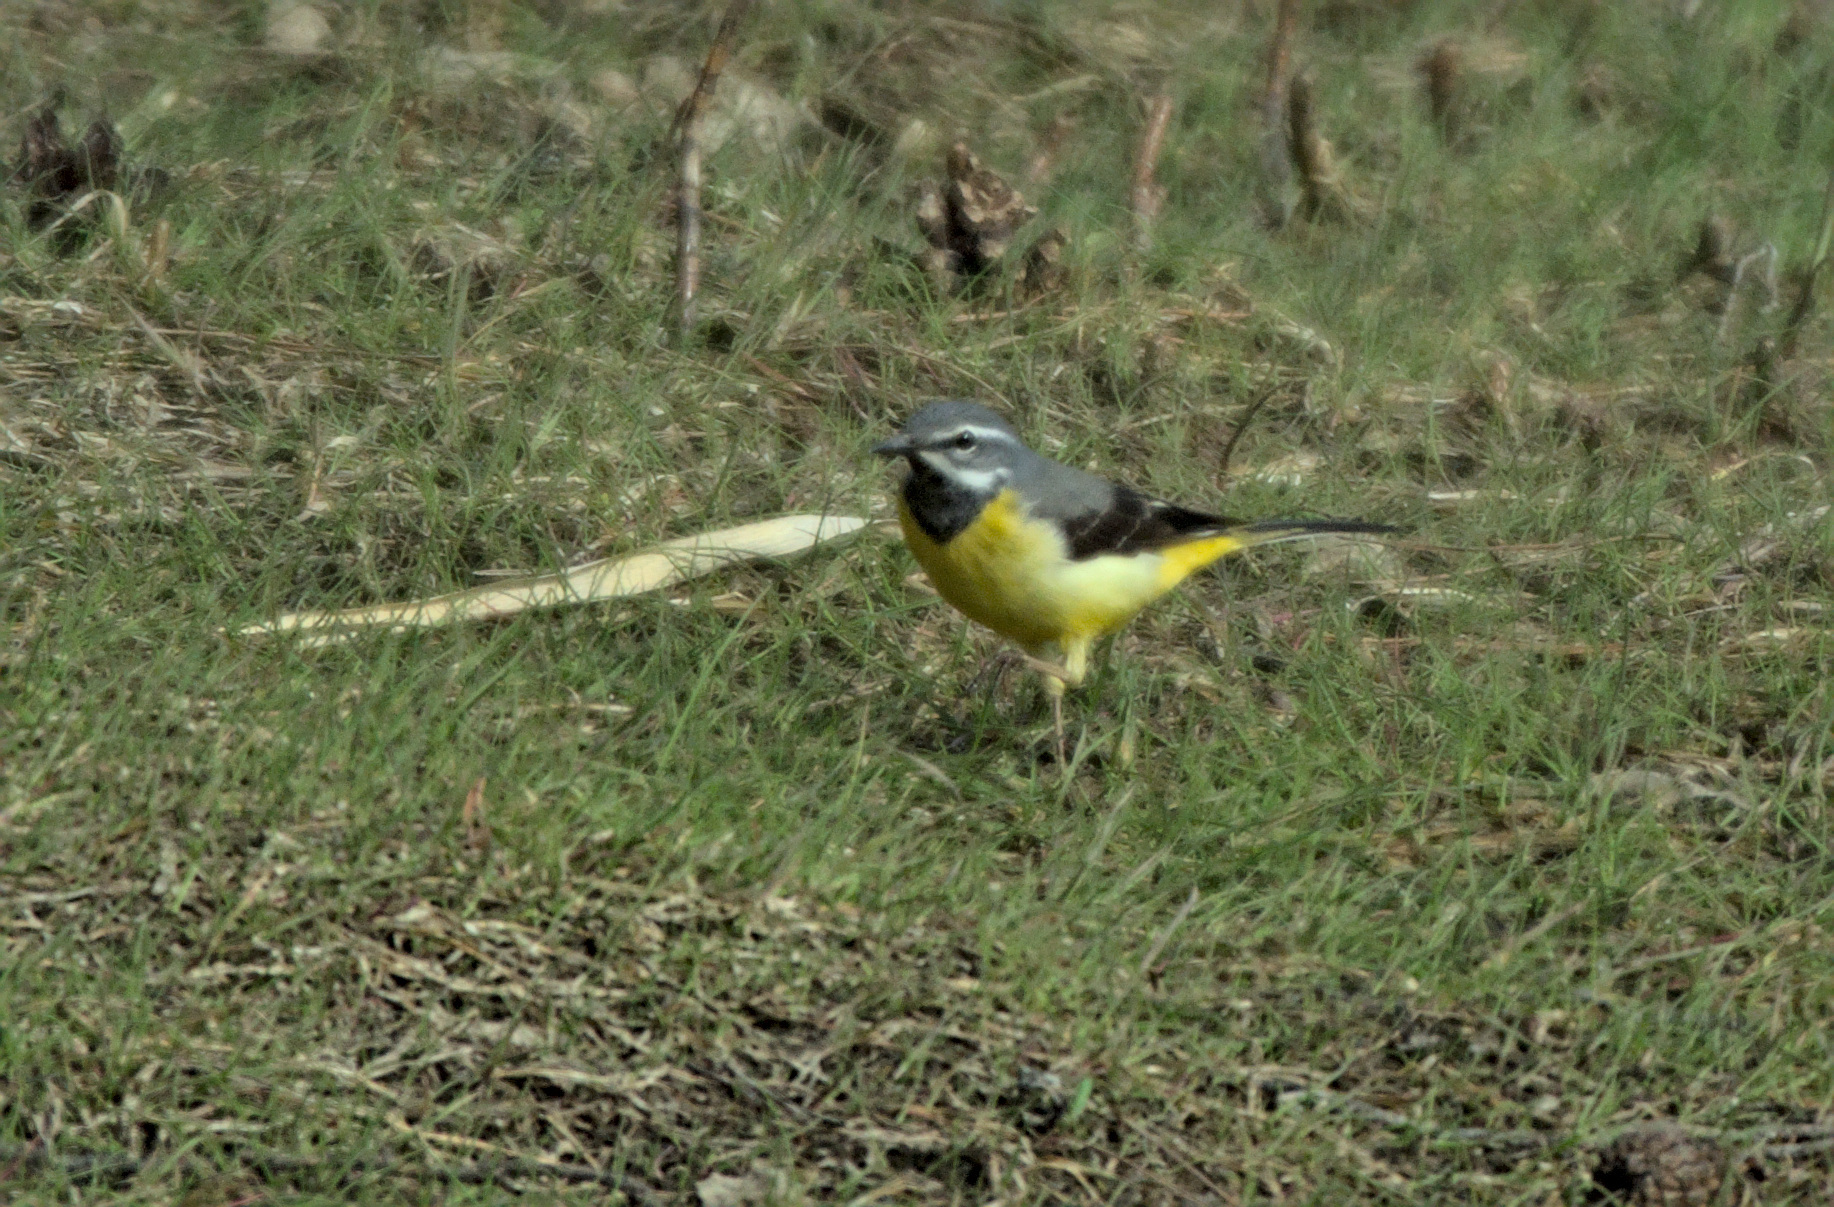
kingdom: Animalia
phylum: Chordata
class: Aves
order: Passeriformes
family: Motacillidae
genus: Motacilla
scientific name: Motacilla cinerea
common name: Grey wagtail
